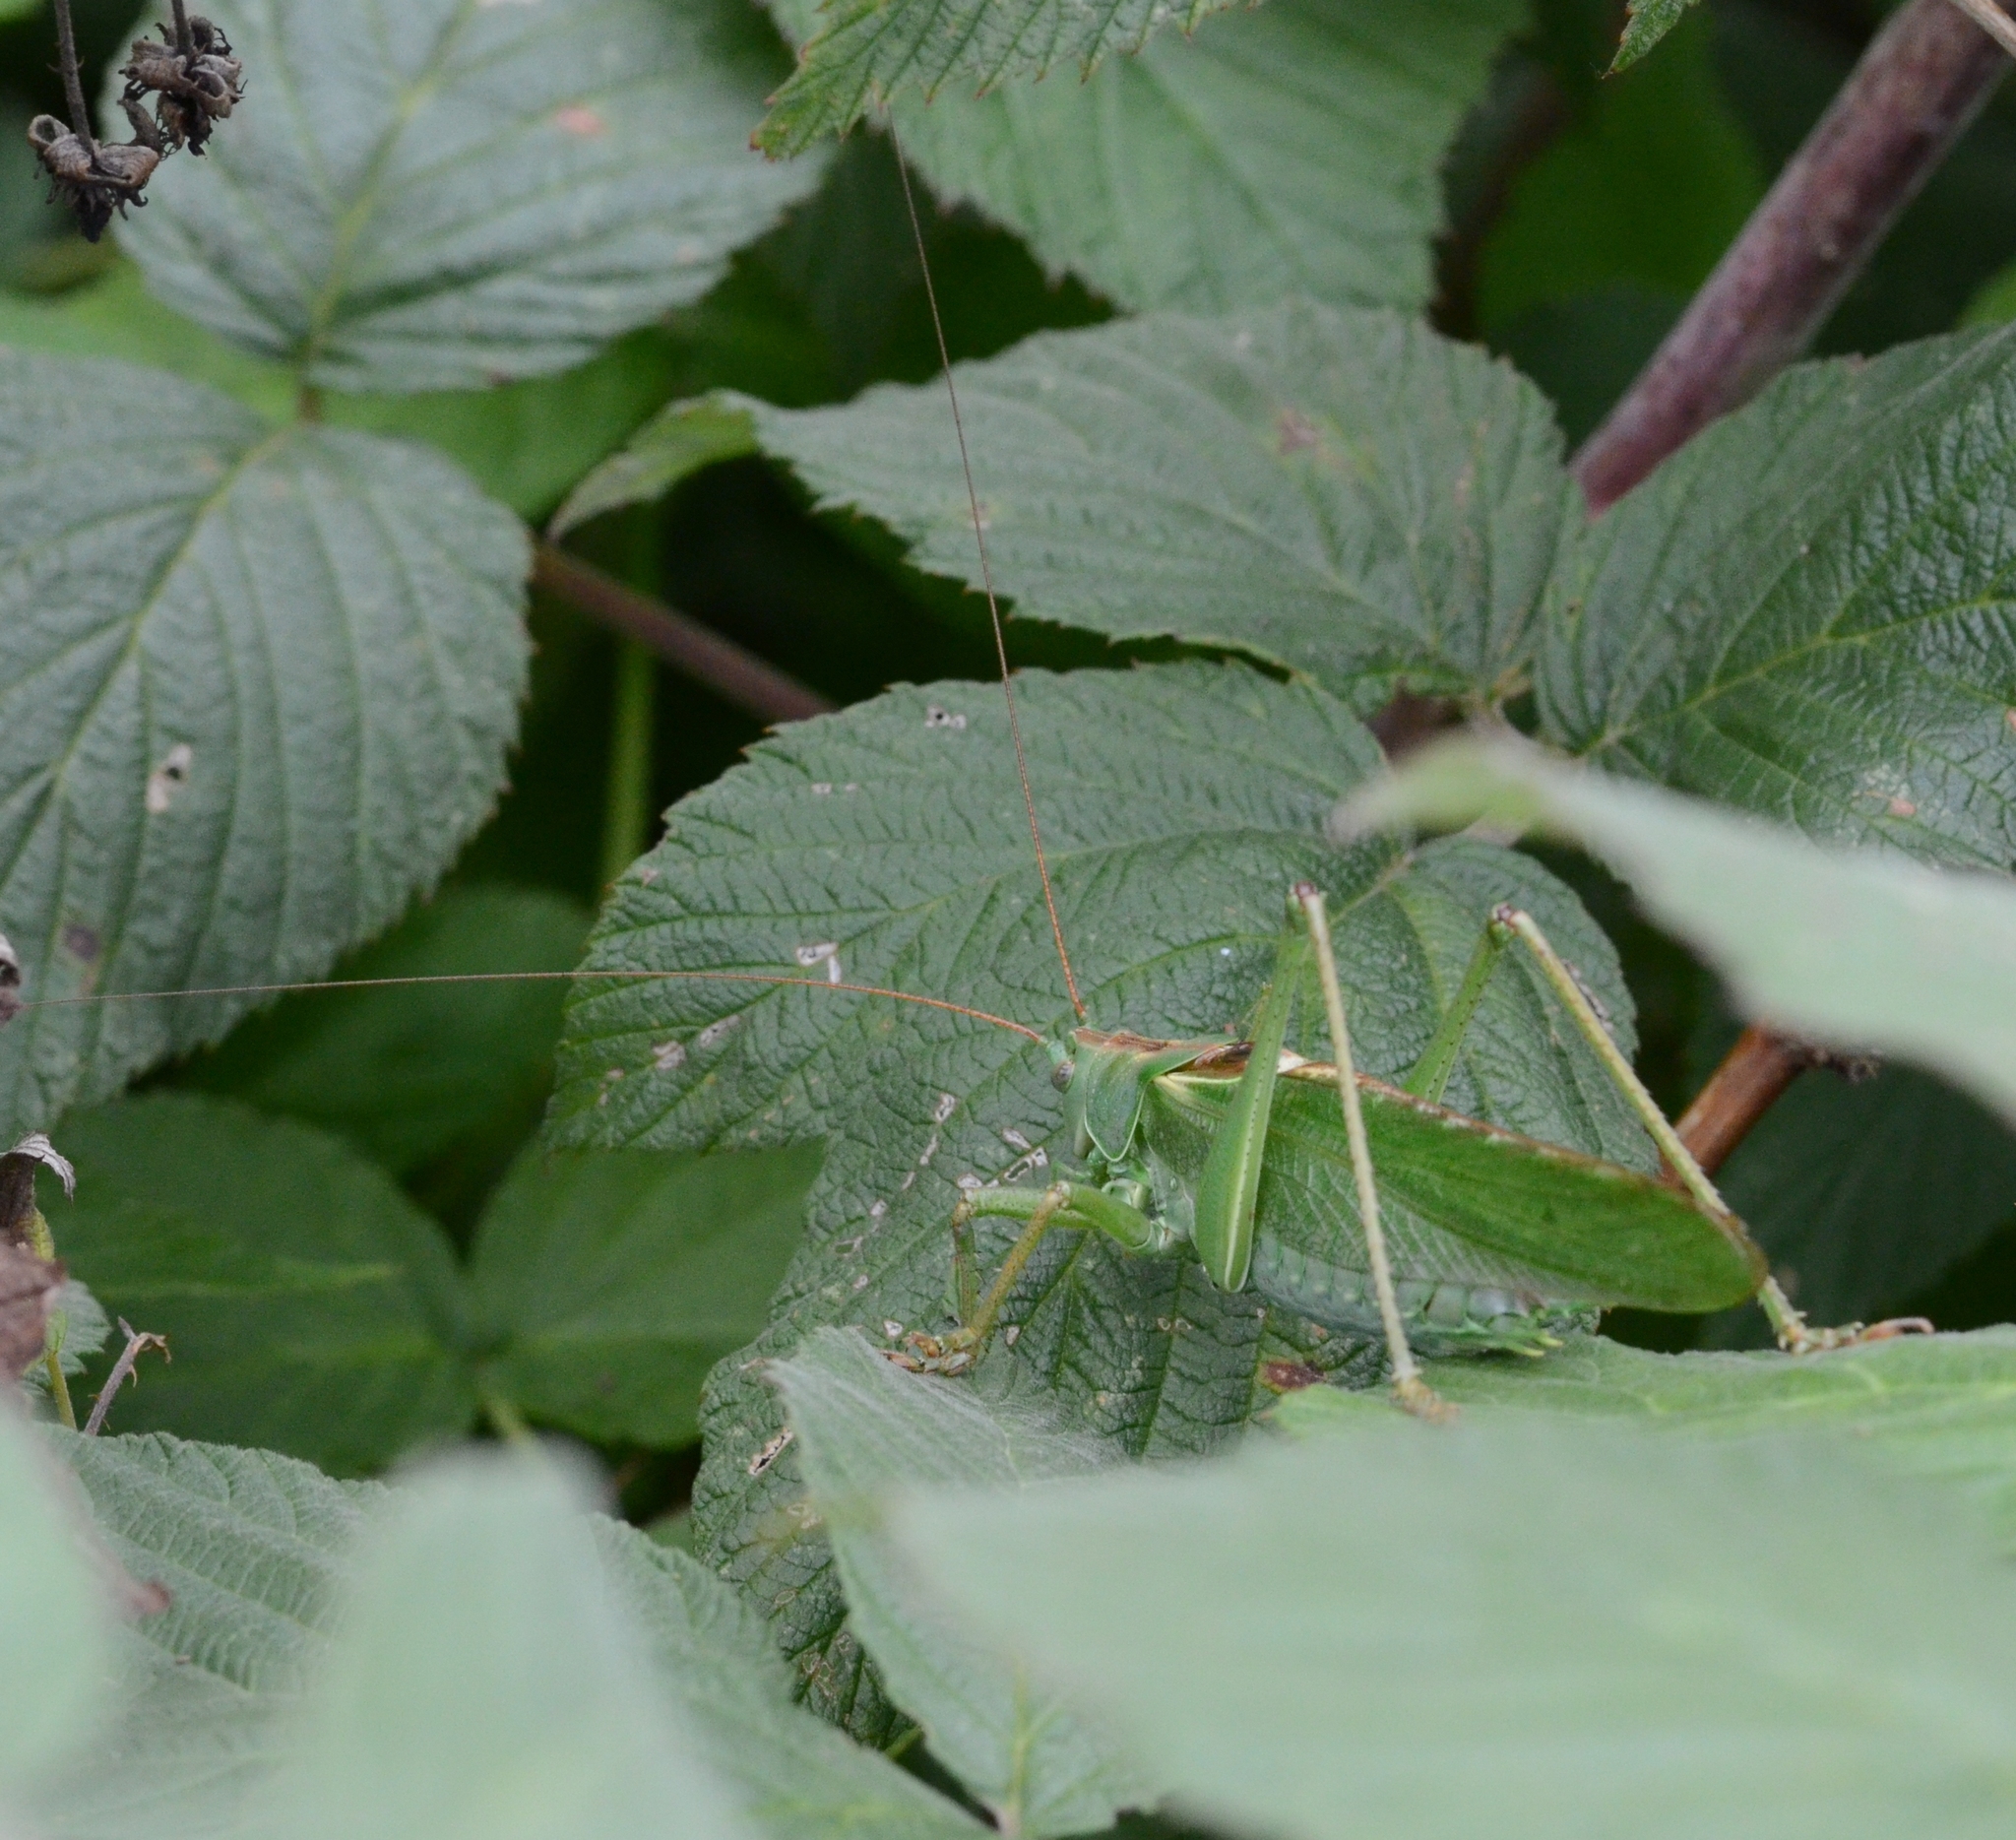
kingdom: Animalia
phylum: Arthropoda
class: Insecta
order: Orthoptera
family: Tettigoniidae
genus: Tettigonia
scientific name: Tettigonia viridissima
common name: Great green bush-cricket
